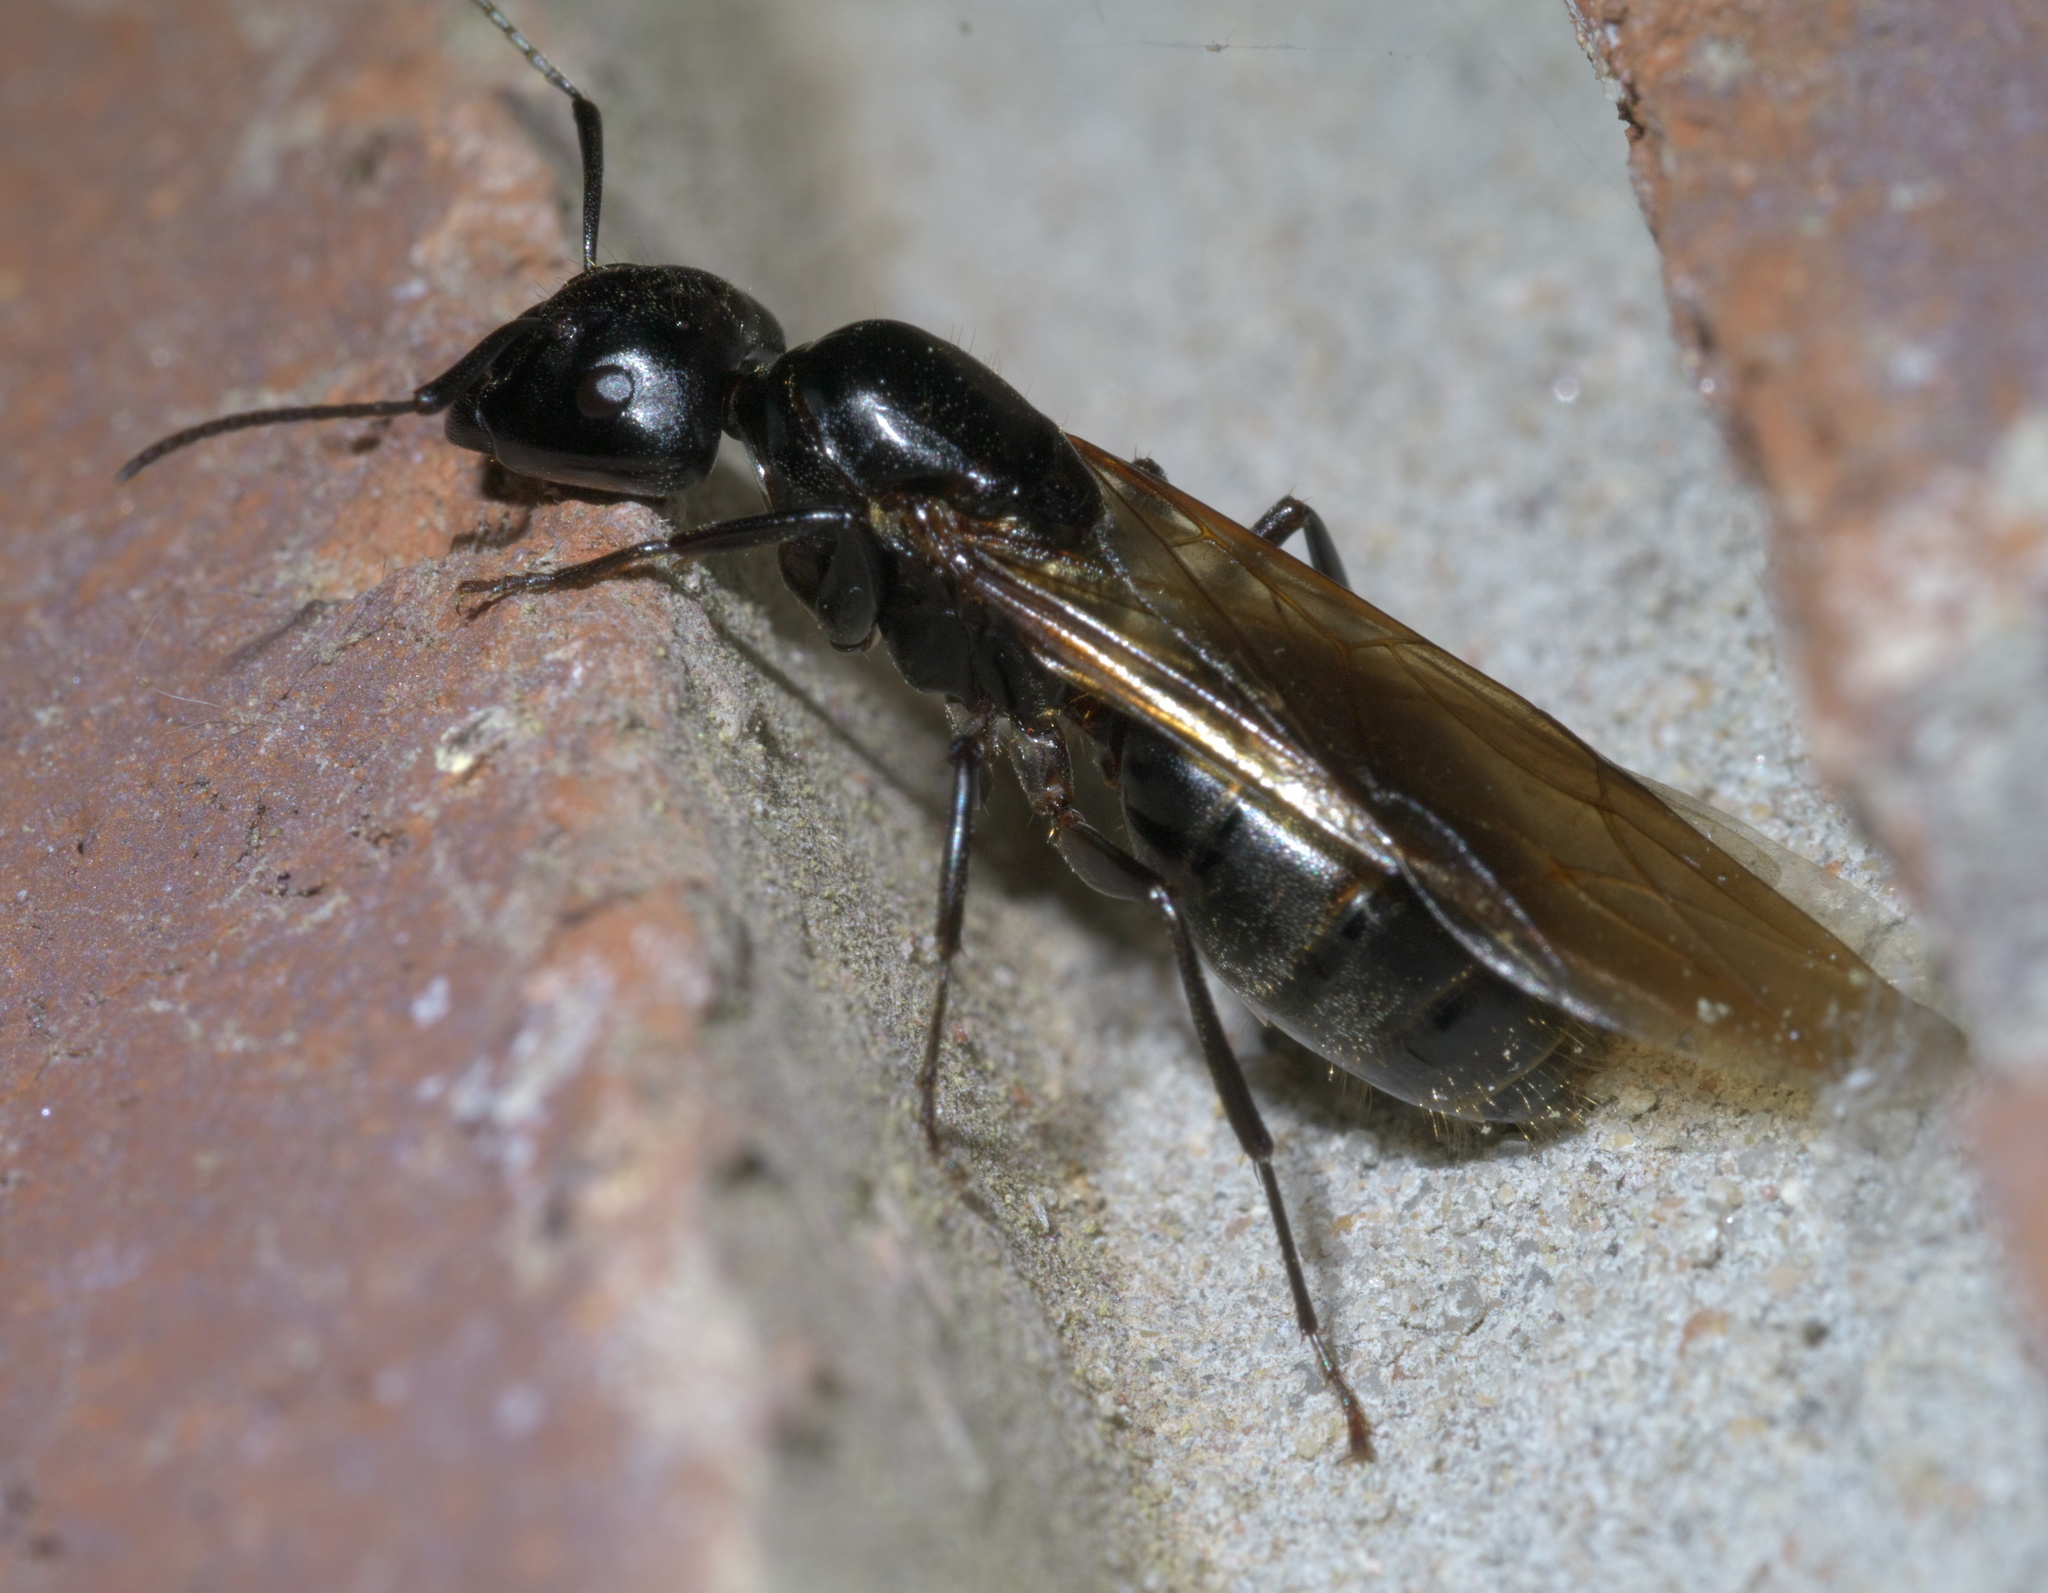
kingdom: Animalia
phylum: Arthropoda
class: Insecta
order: Hymenoptera
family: Formicidae
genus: Camponotus
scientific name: Camponotus pennsylvanicus
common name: Black carpenter ant
